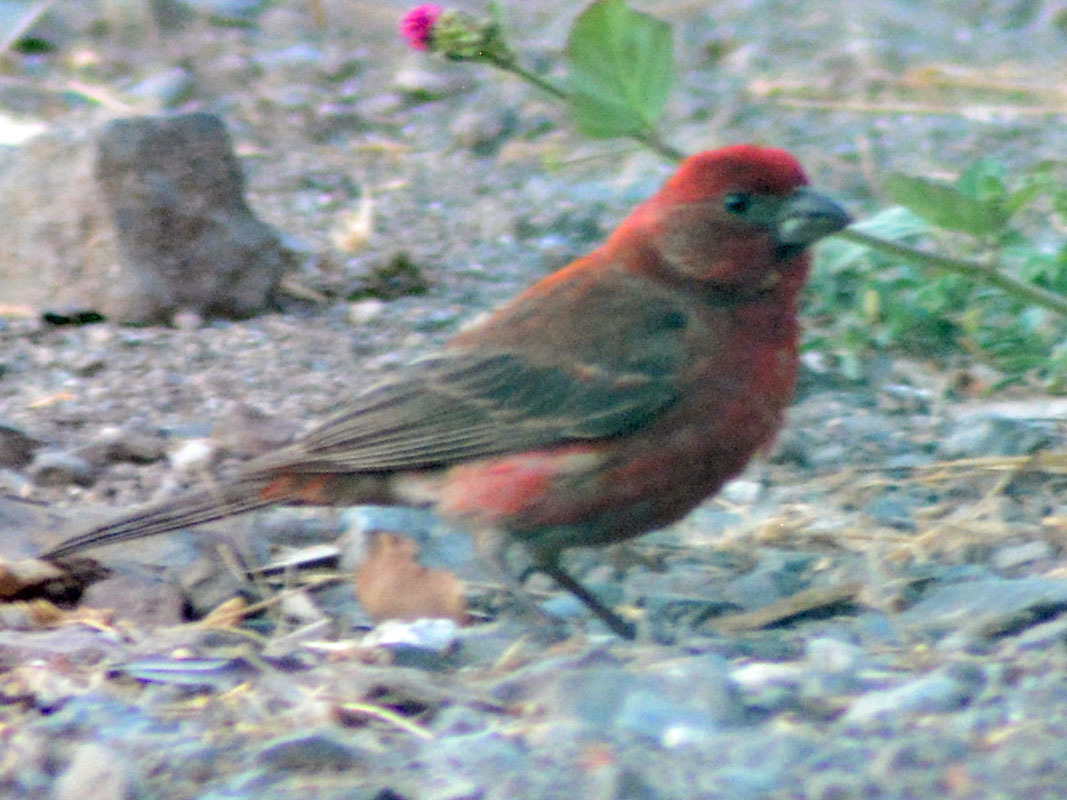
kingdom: Animalia
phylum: Chordata
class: Aves
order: Passeriformes
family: Fringillidae
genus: Haemorhous
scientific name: Haemorhous mexicanus
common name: House finch
